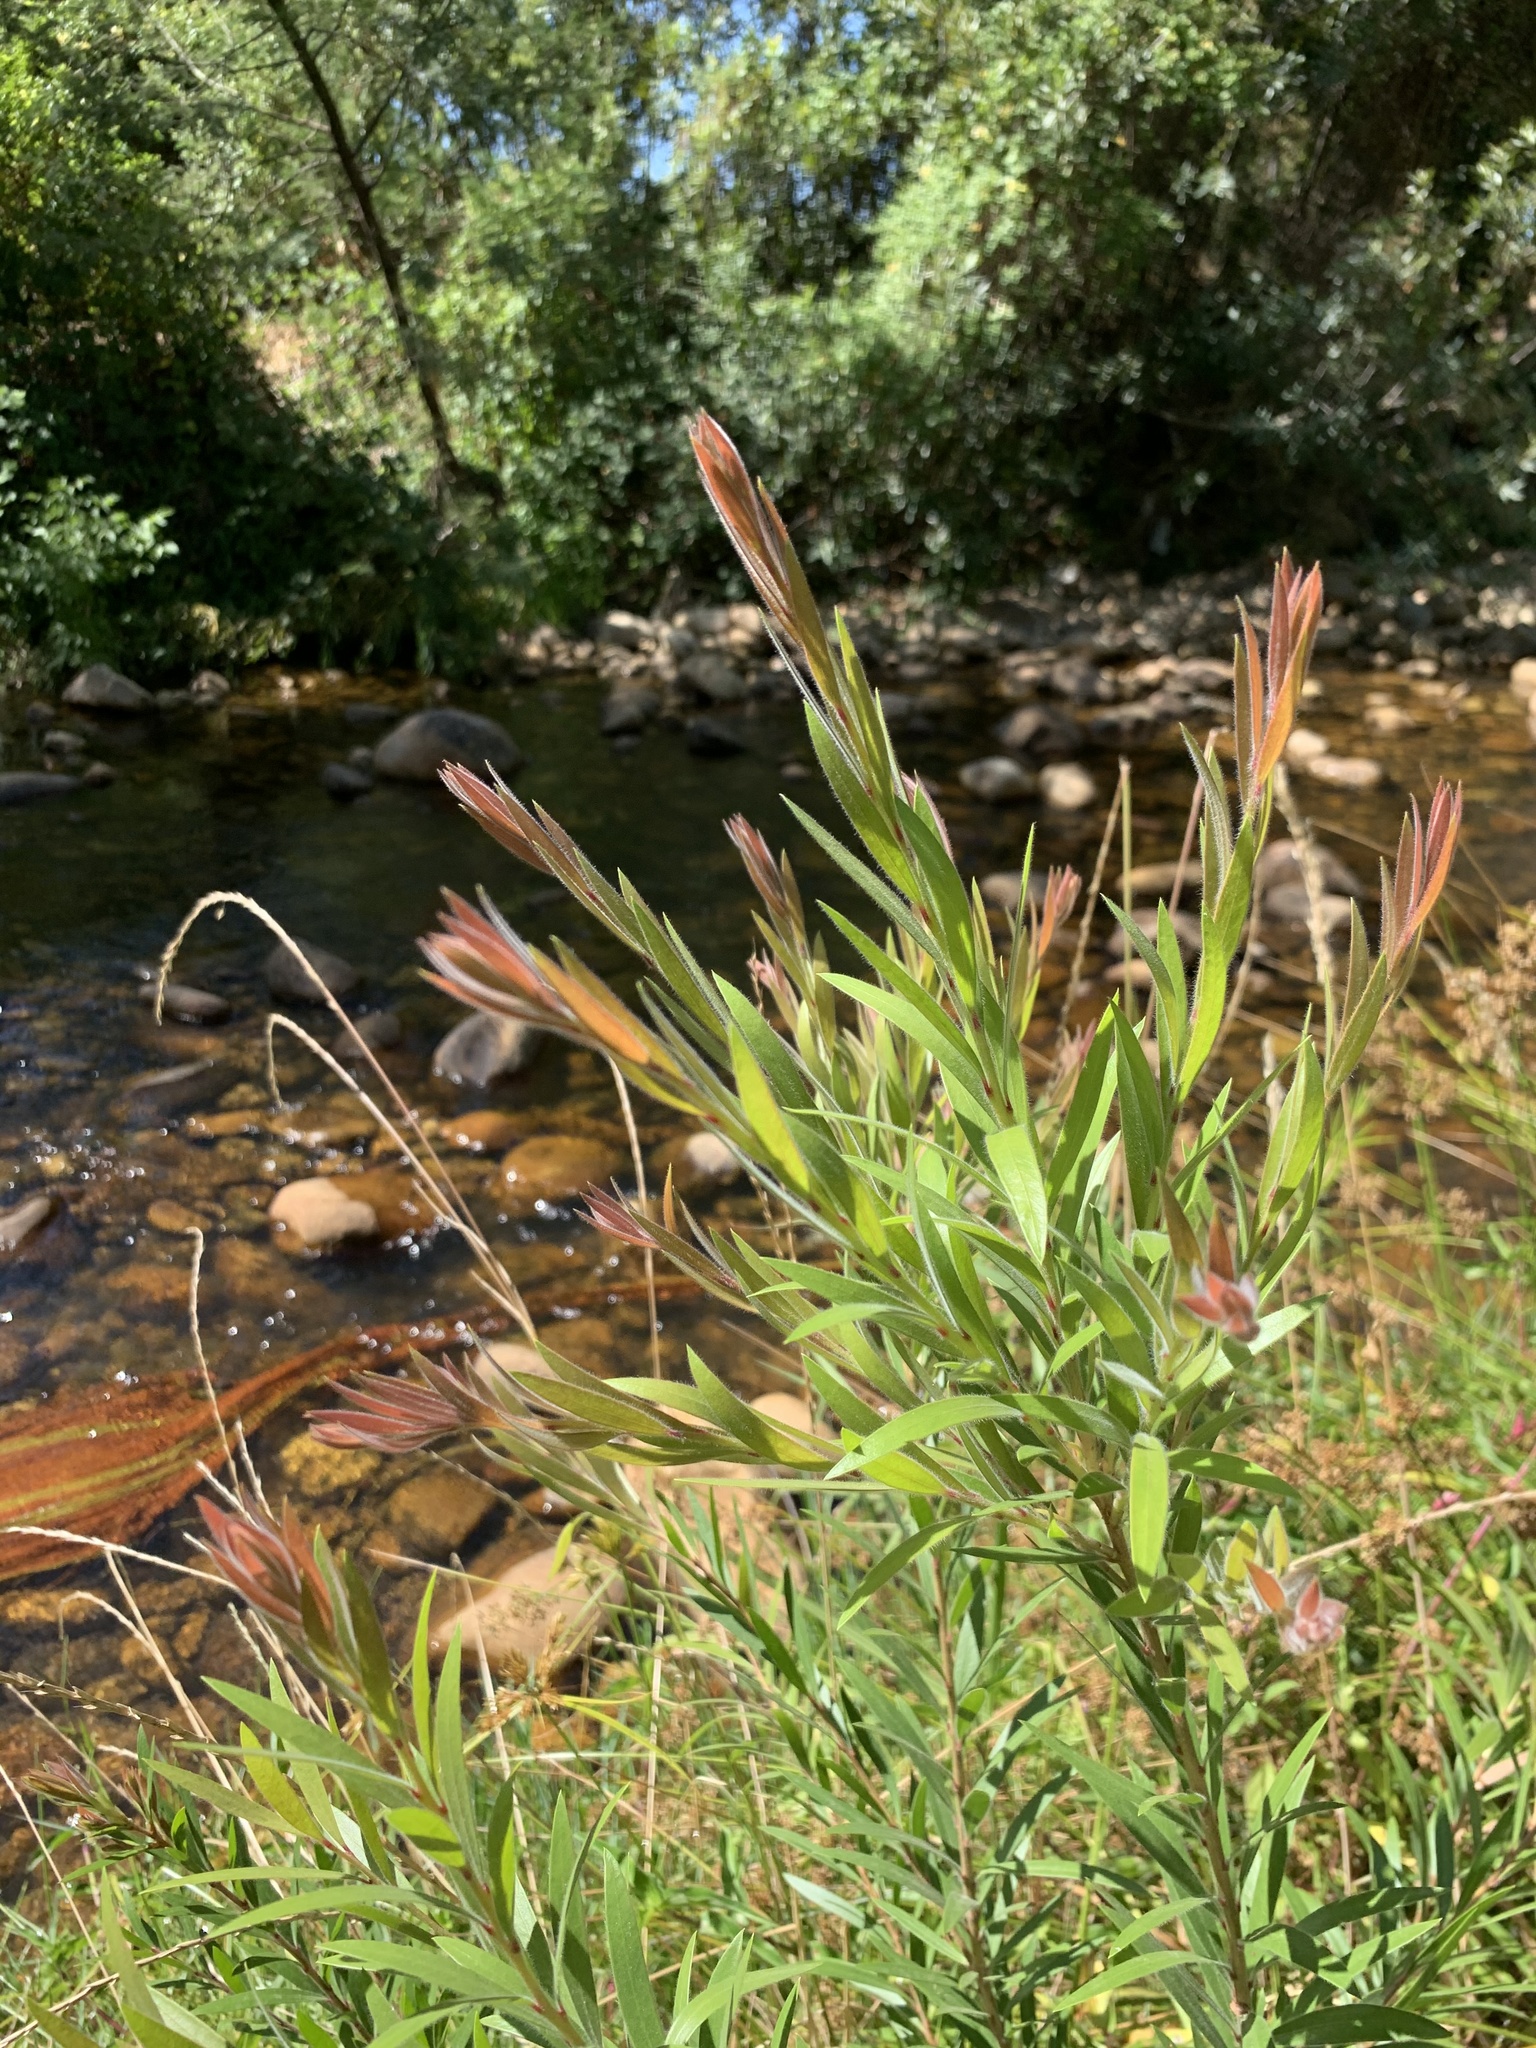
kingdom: Plantae
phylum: Tracheophyta
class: Magnoliopsida
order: Myrtales
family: Myrtaceae
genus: Callistemon
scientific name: Callistemon viminalis
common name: Drooping bottlebrush
